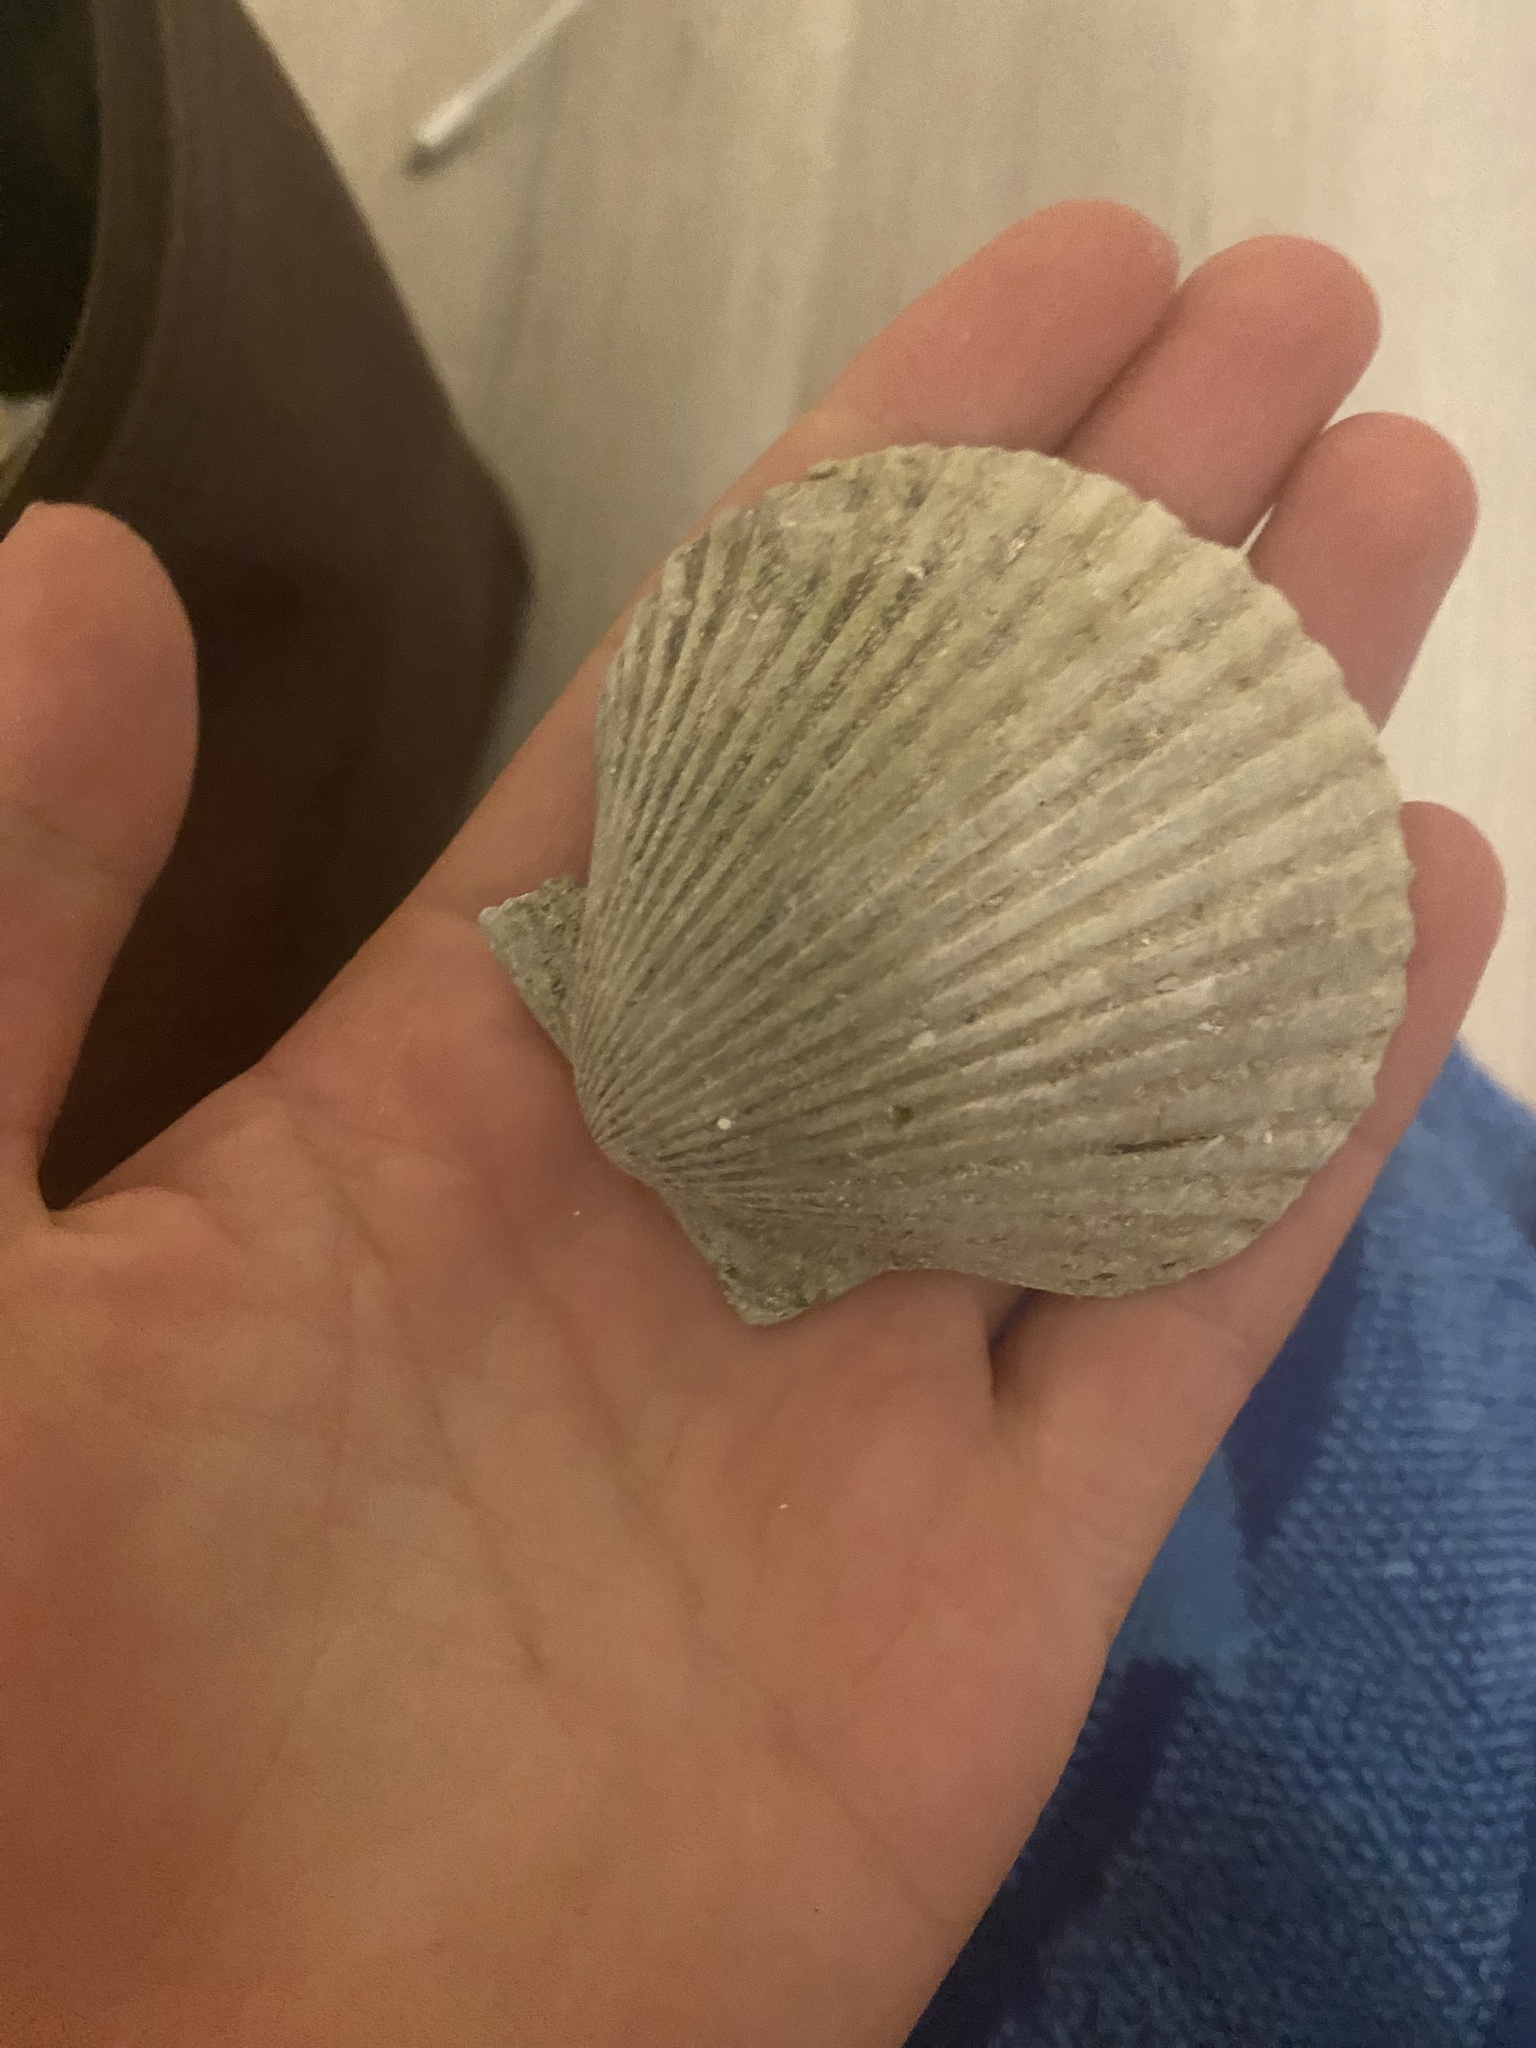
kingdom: Animalia
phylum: Mollusca
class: Bivalvia
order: Pectinida
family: Pectinidae
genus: Argopecten
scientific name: Argopecten irradians
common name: Atlantic bay scallop
